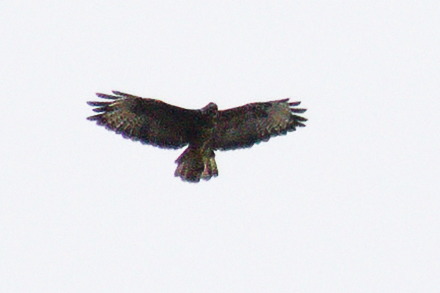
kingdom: Animalia
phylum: Chordata
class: Aves
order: Accipitriformes
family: Accipitridae
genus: Buteo
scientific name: Buteo buteo
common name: Common buzzard
